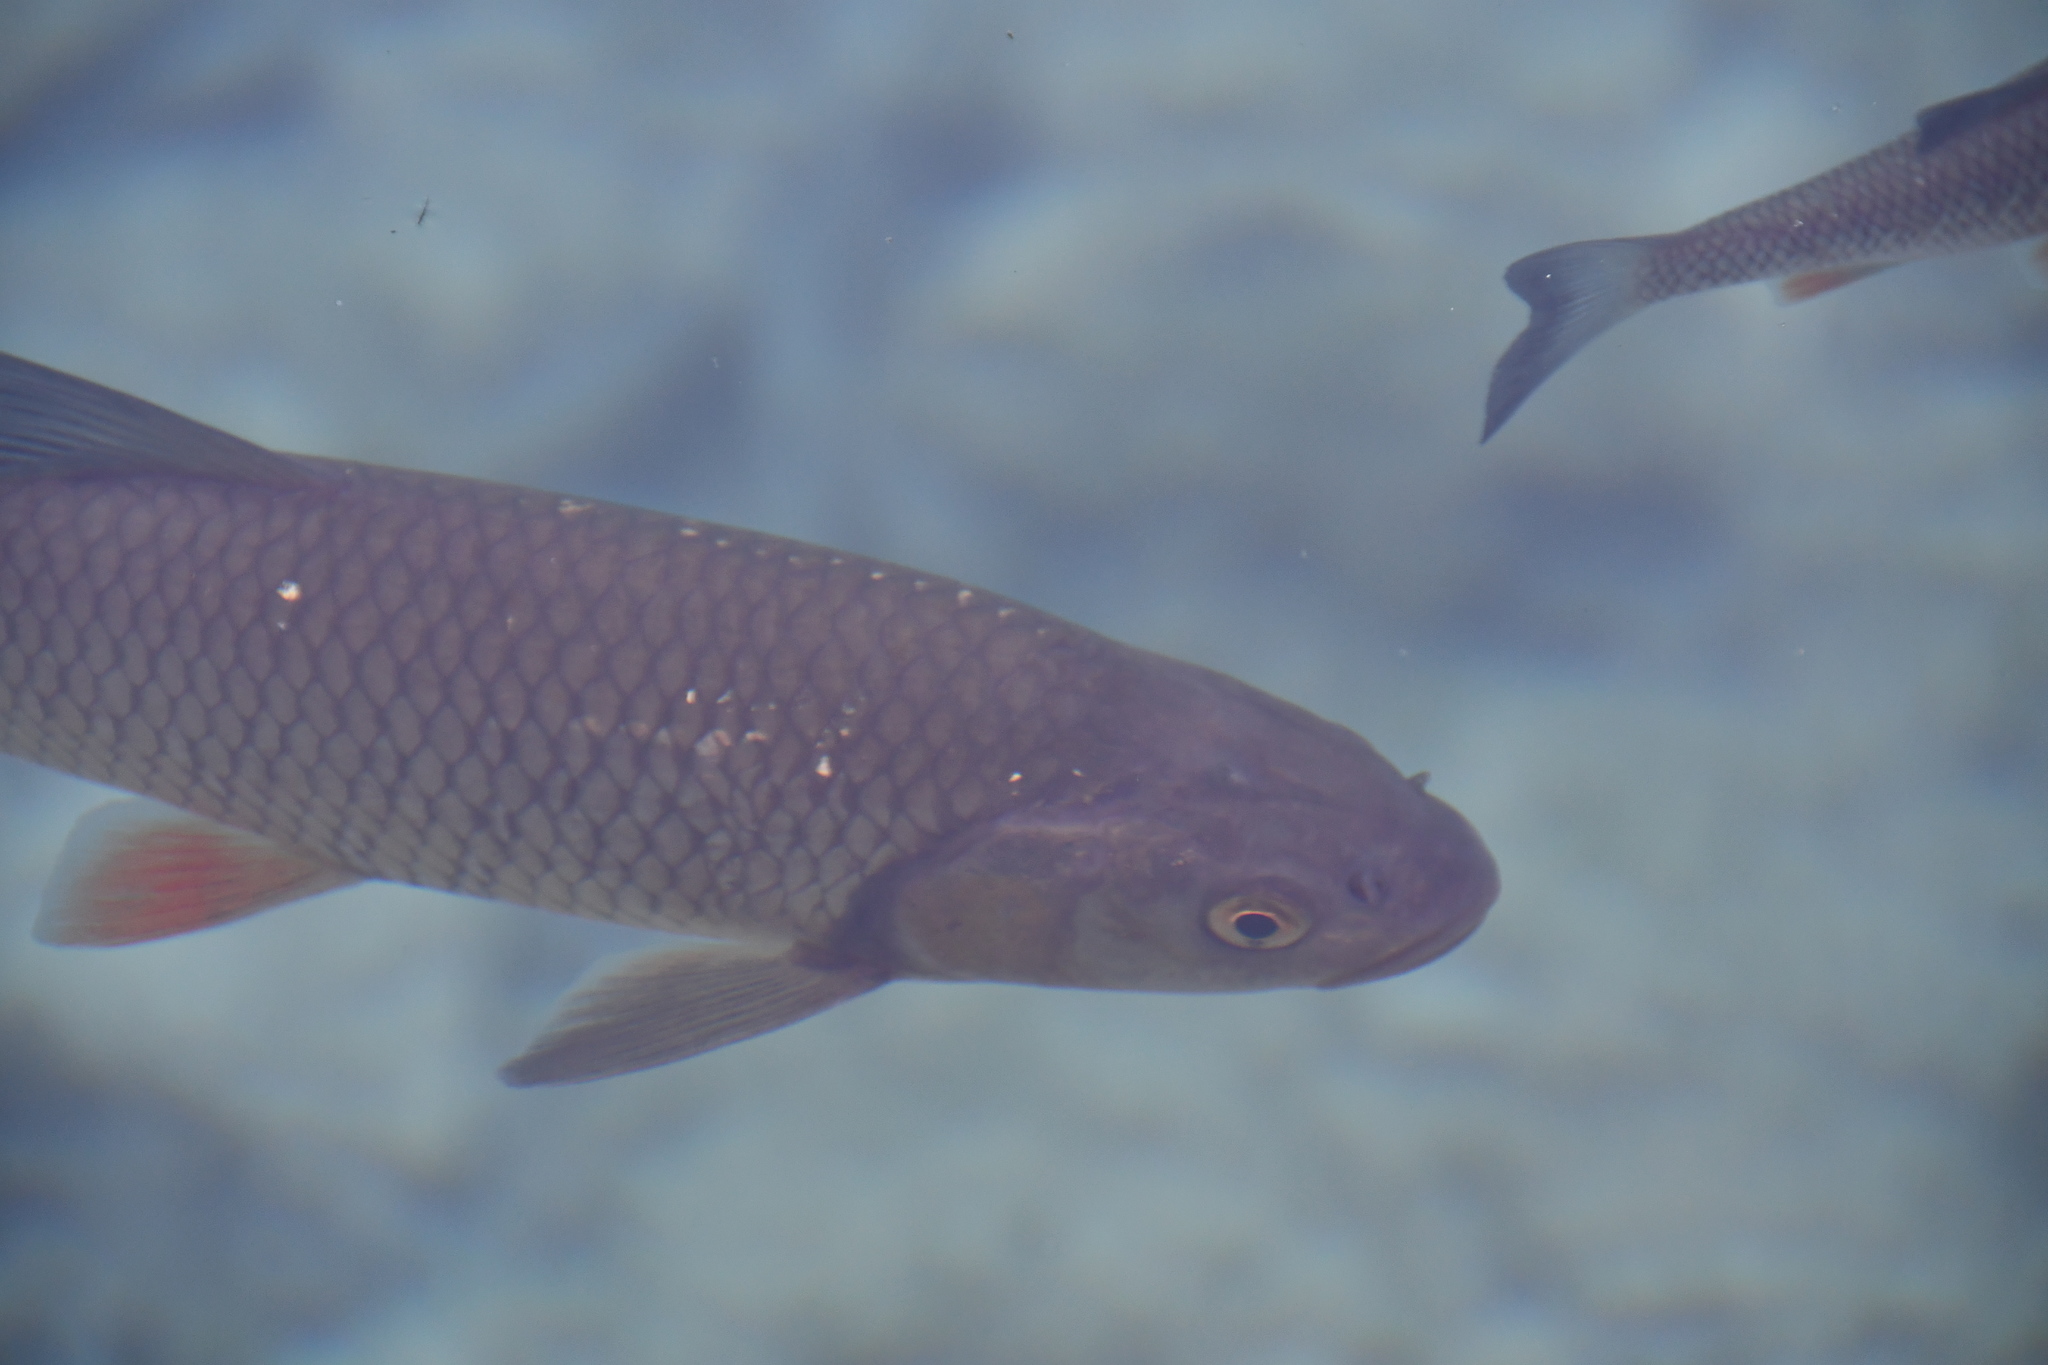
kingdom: Animalia
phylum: Chordata
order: Cypriniformes
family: Cyprinidae
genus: Squalius
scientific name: Squalius cephalus
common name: Chub
